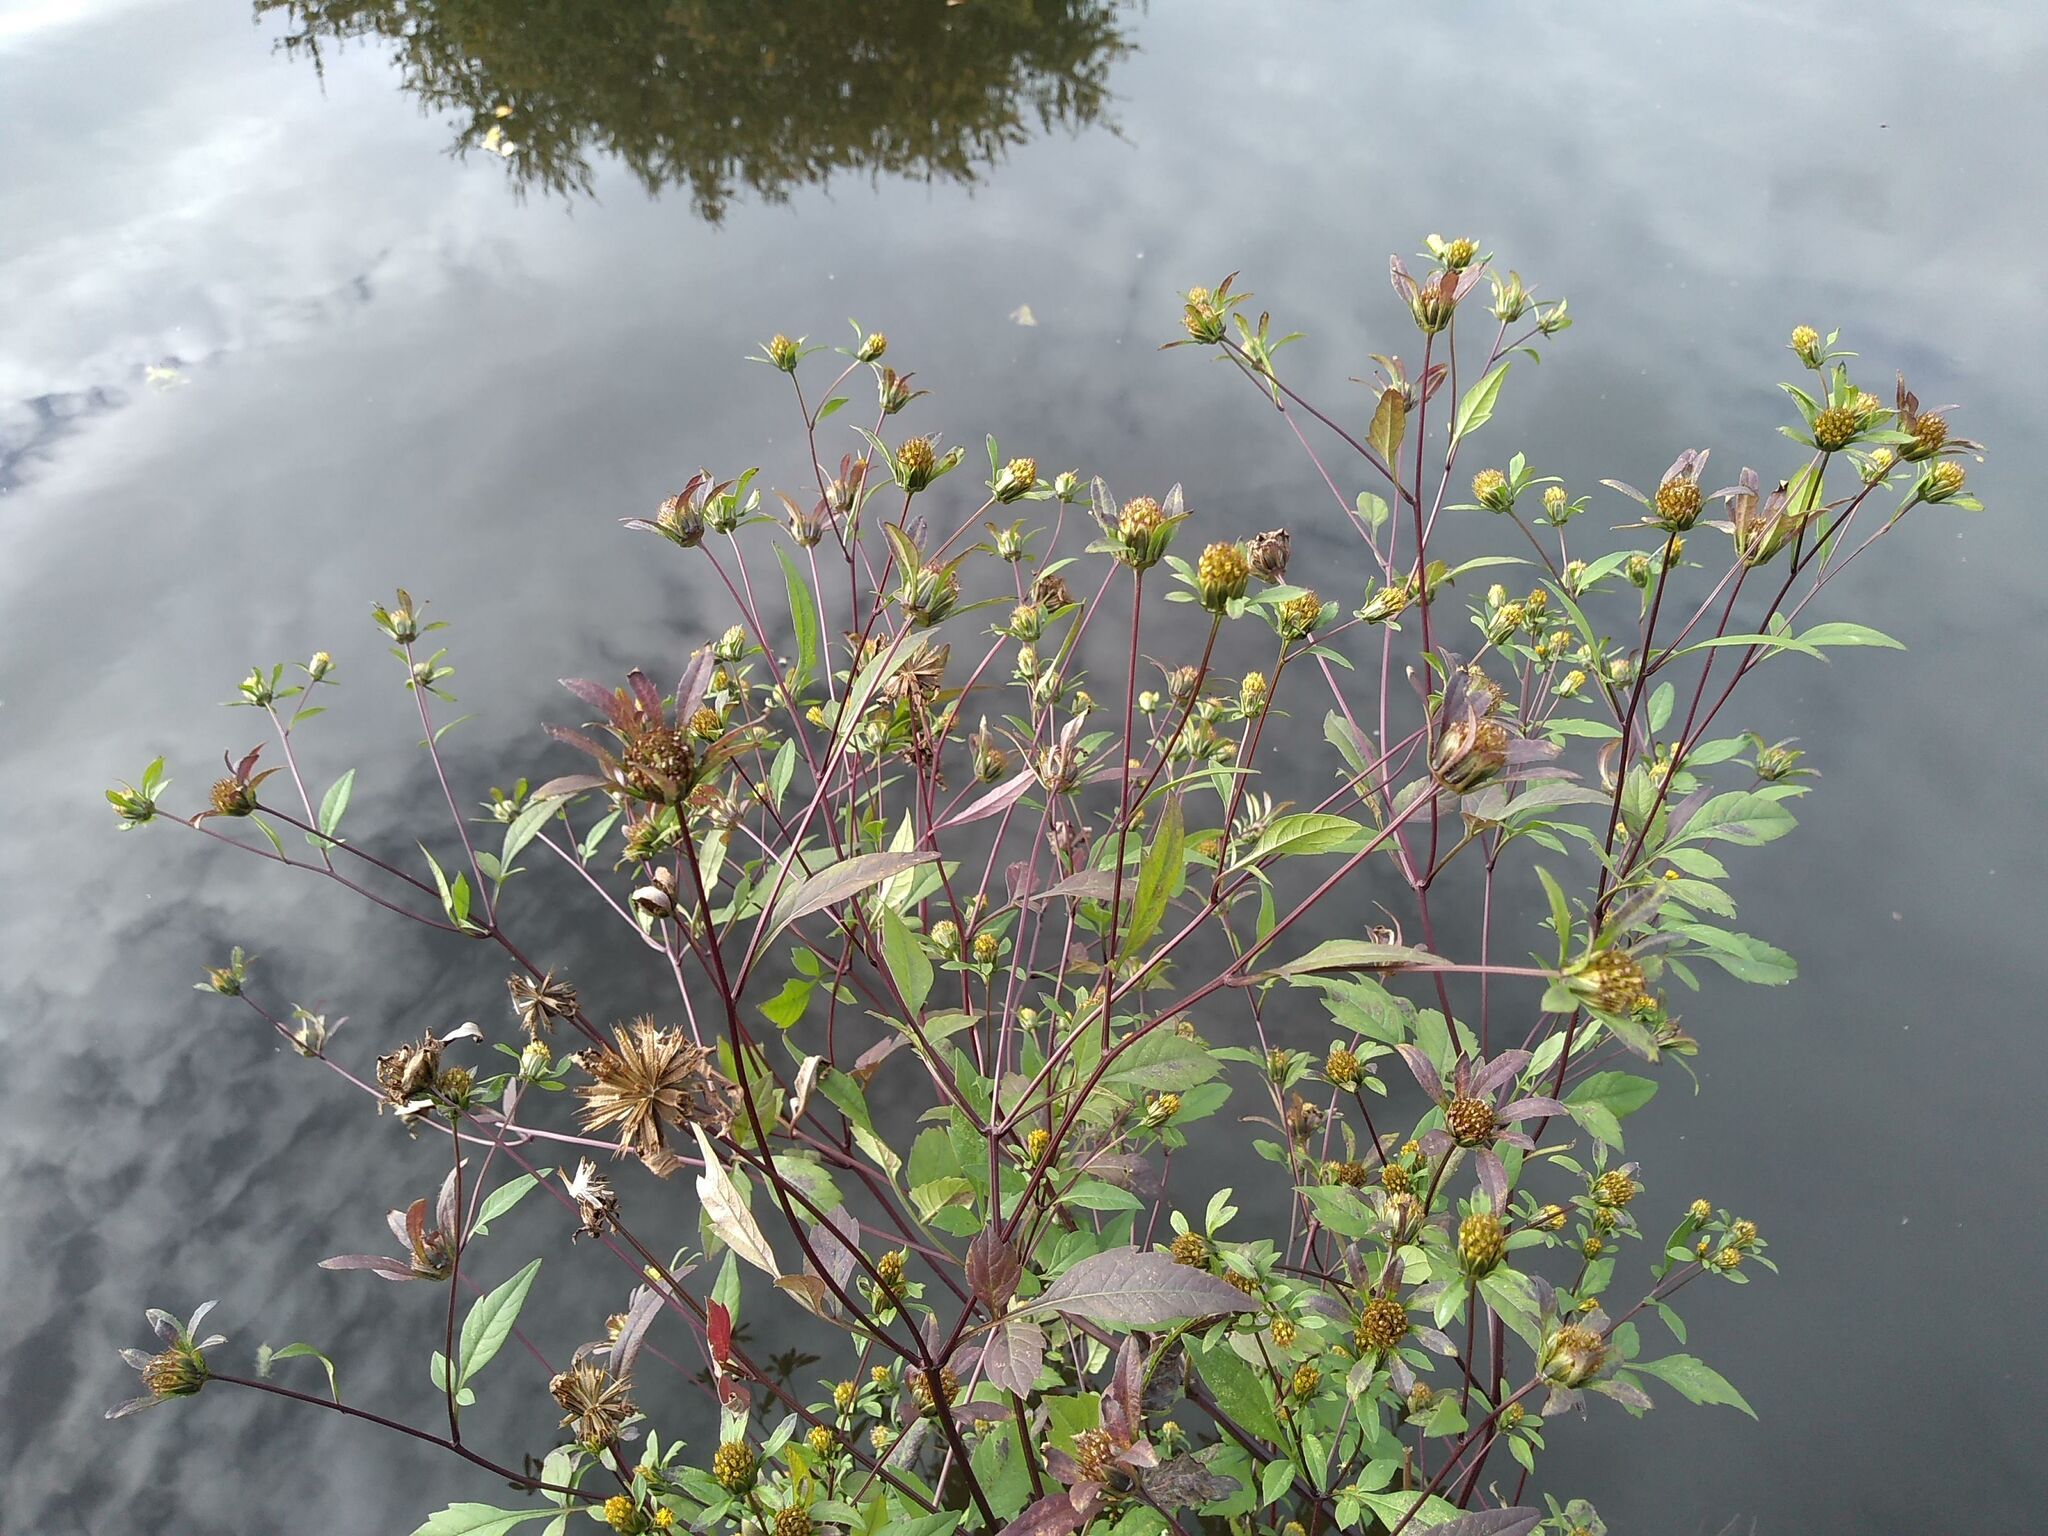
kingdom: Plantae
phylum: Tracheophyta
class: Magnoliopsida
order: Asterales
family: Asteraceae
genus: Bidens
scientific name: Bidens tripartita
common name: Trifid bur-marigold
